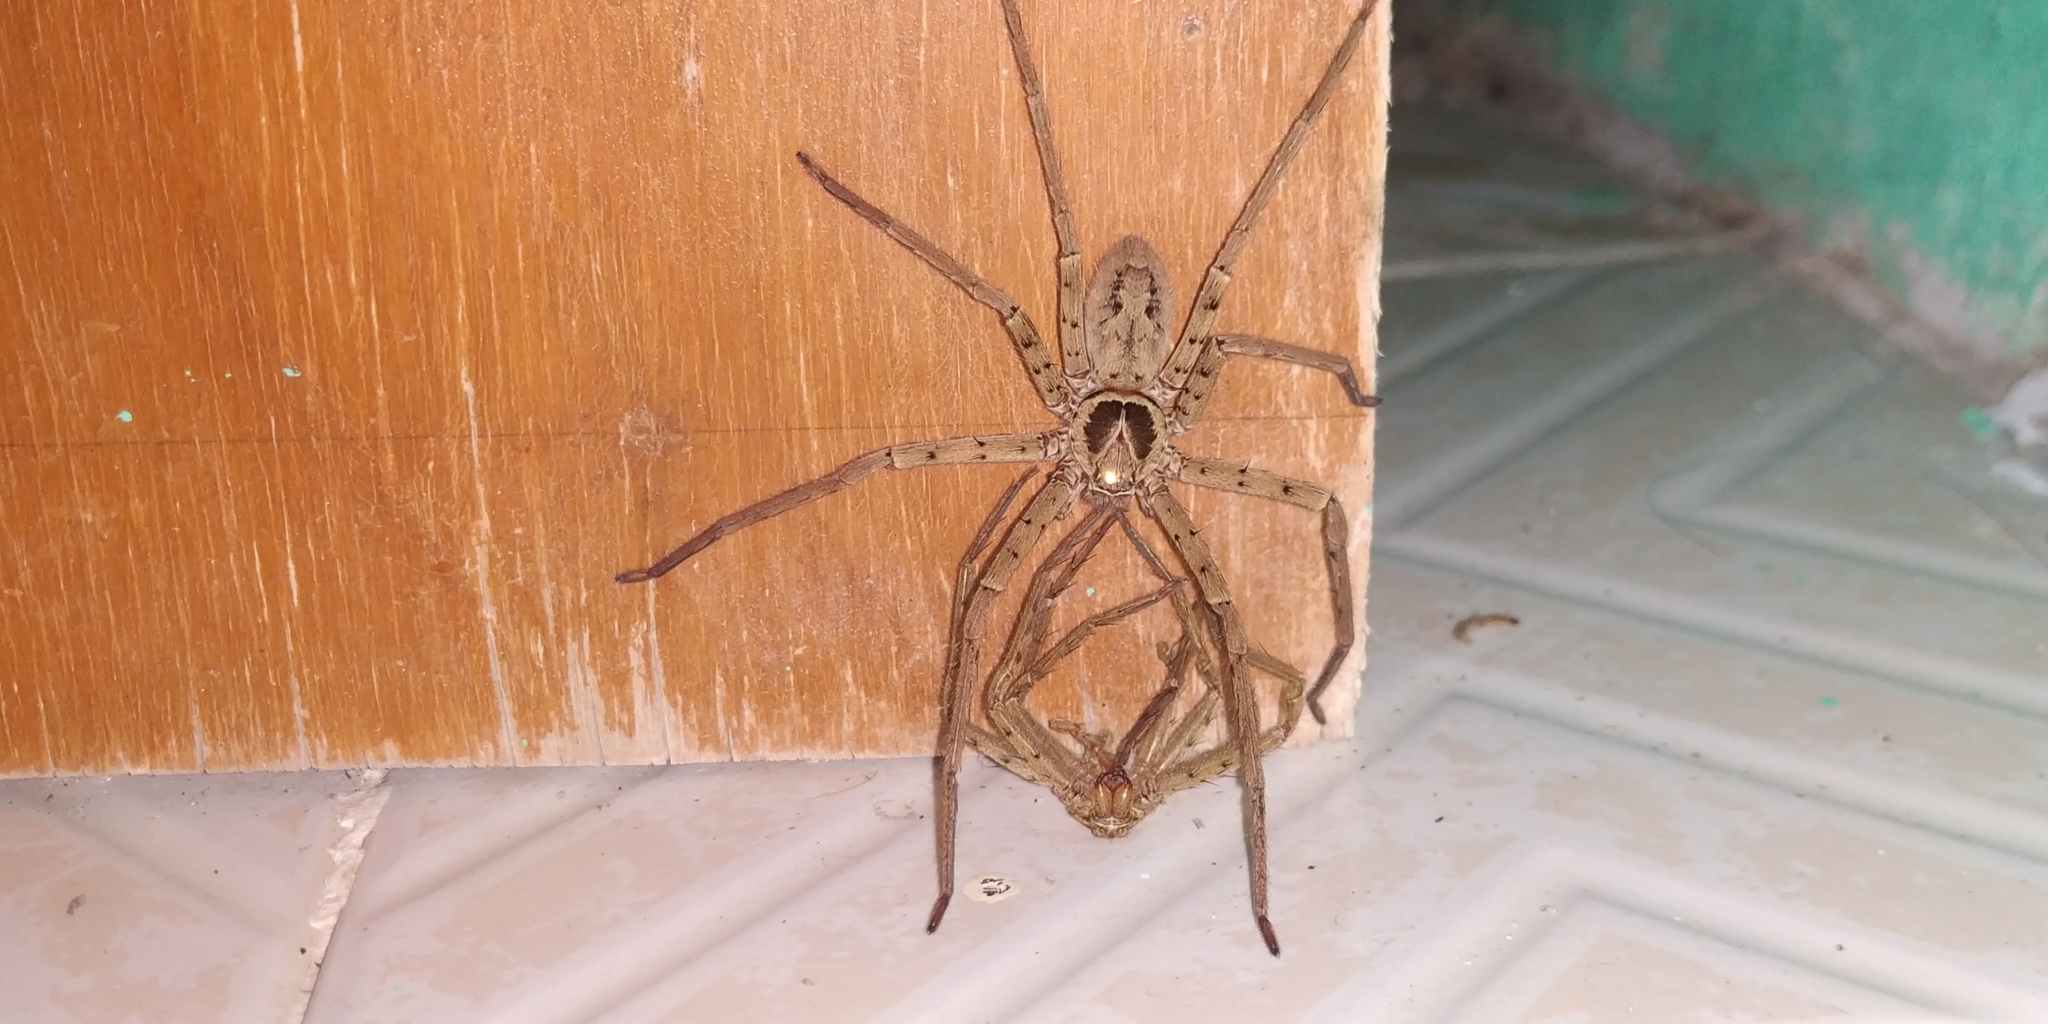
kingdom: Animalia
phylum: Arthropoda
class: Arachnida
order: Araneae
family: Sparassidae
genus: Heteropoda
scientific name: Heteropoda venatoria
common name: Huntsman spider
